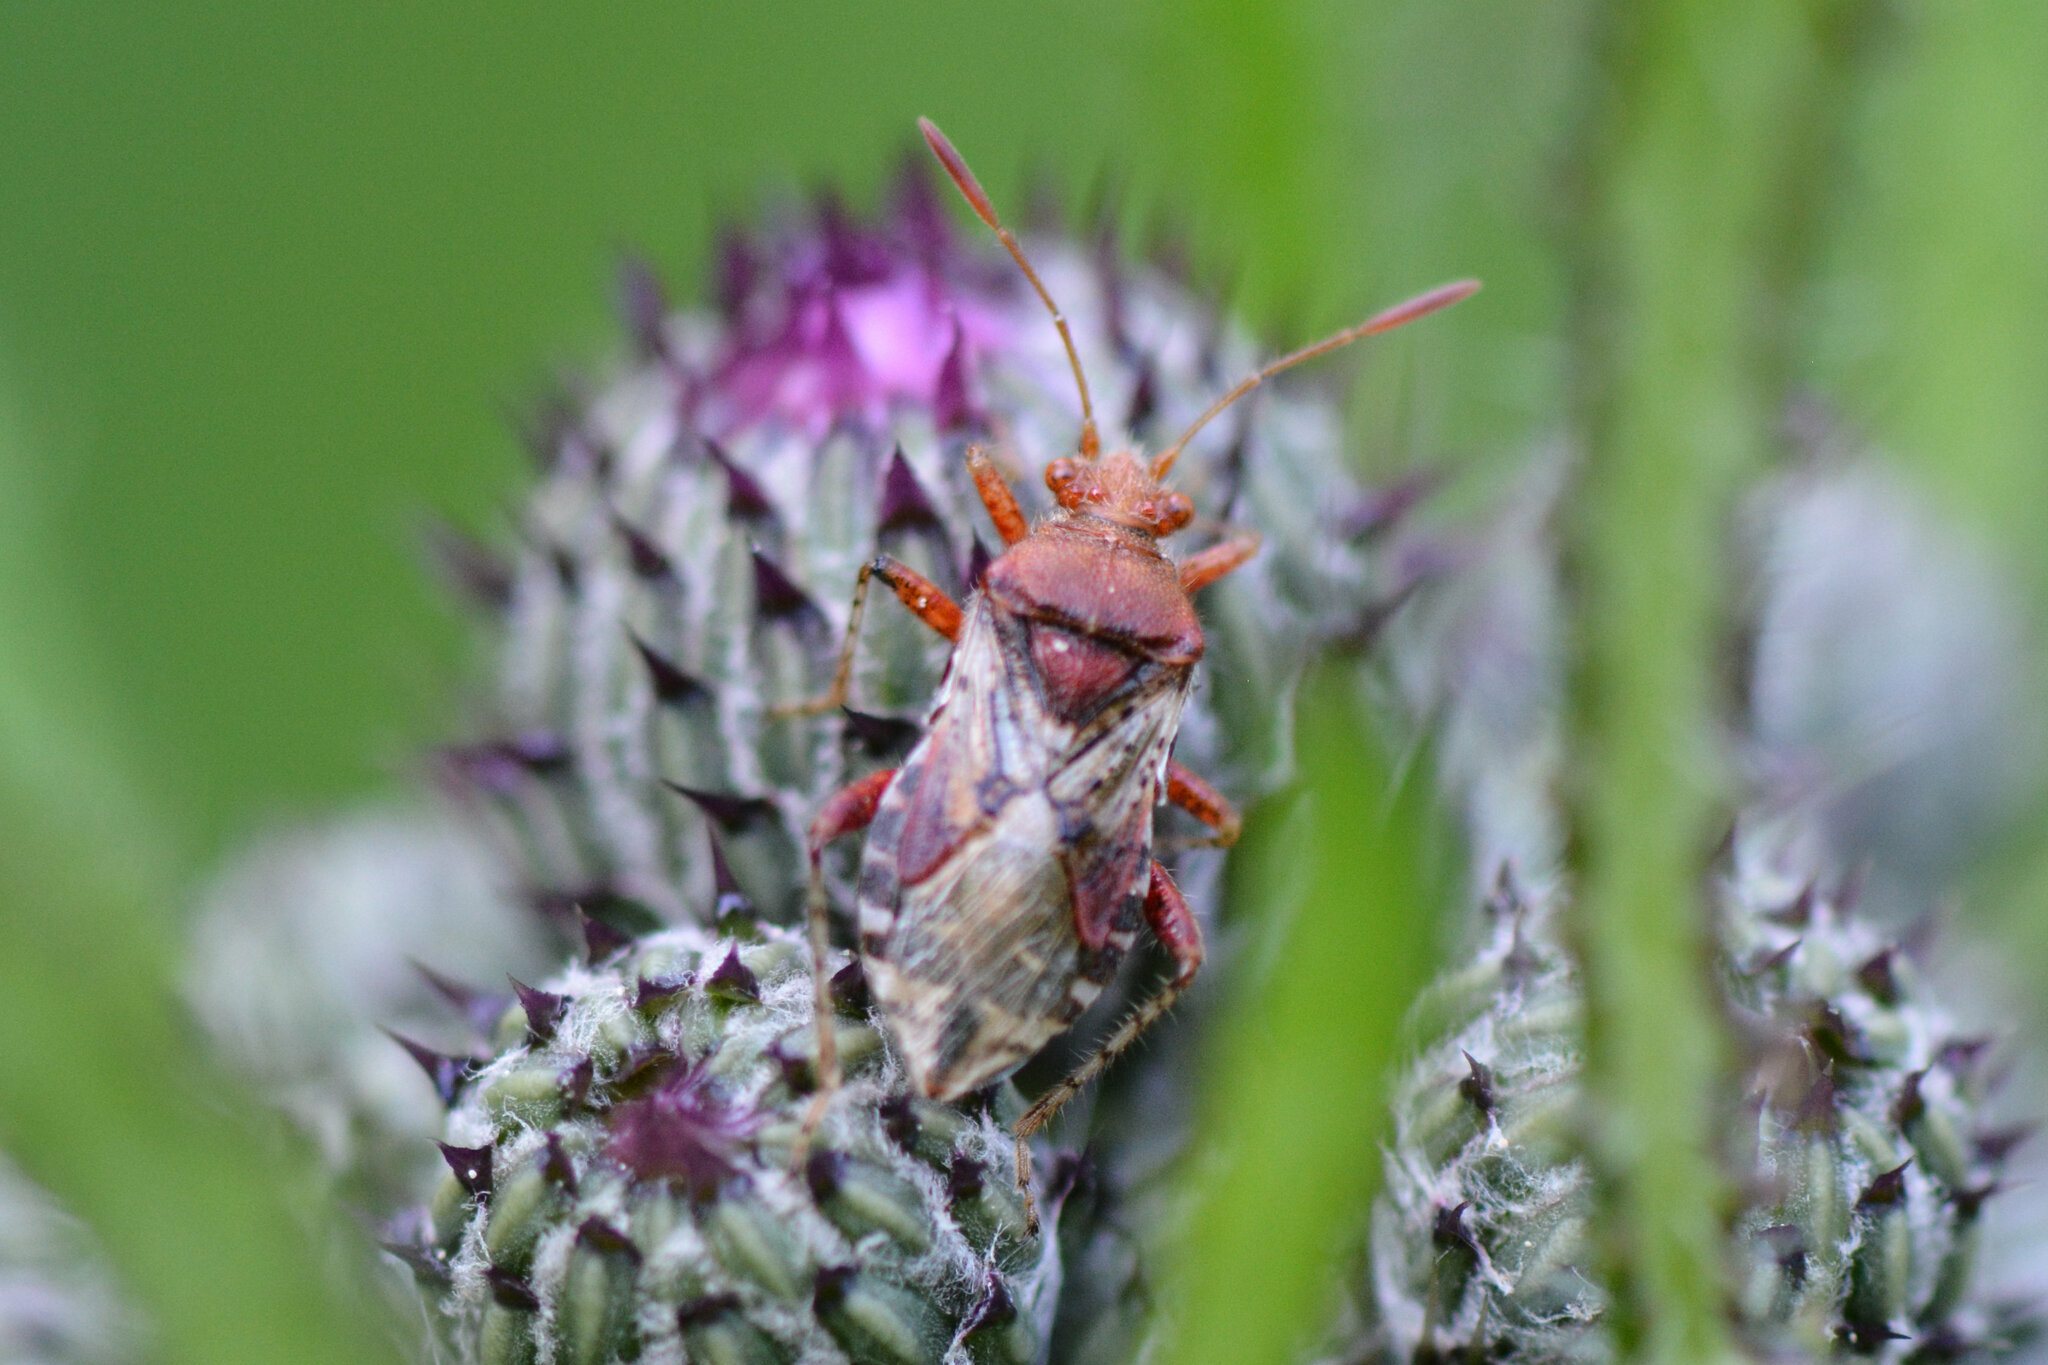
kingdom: Animalia
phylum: Arthropoda
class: Insecta
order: Hemiptera
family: Rhopalidae
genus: Rhopalus
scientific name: Rhopalus subrufus
